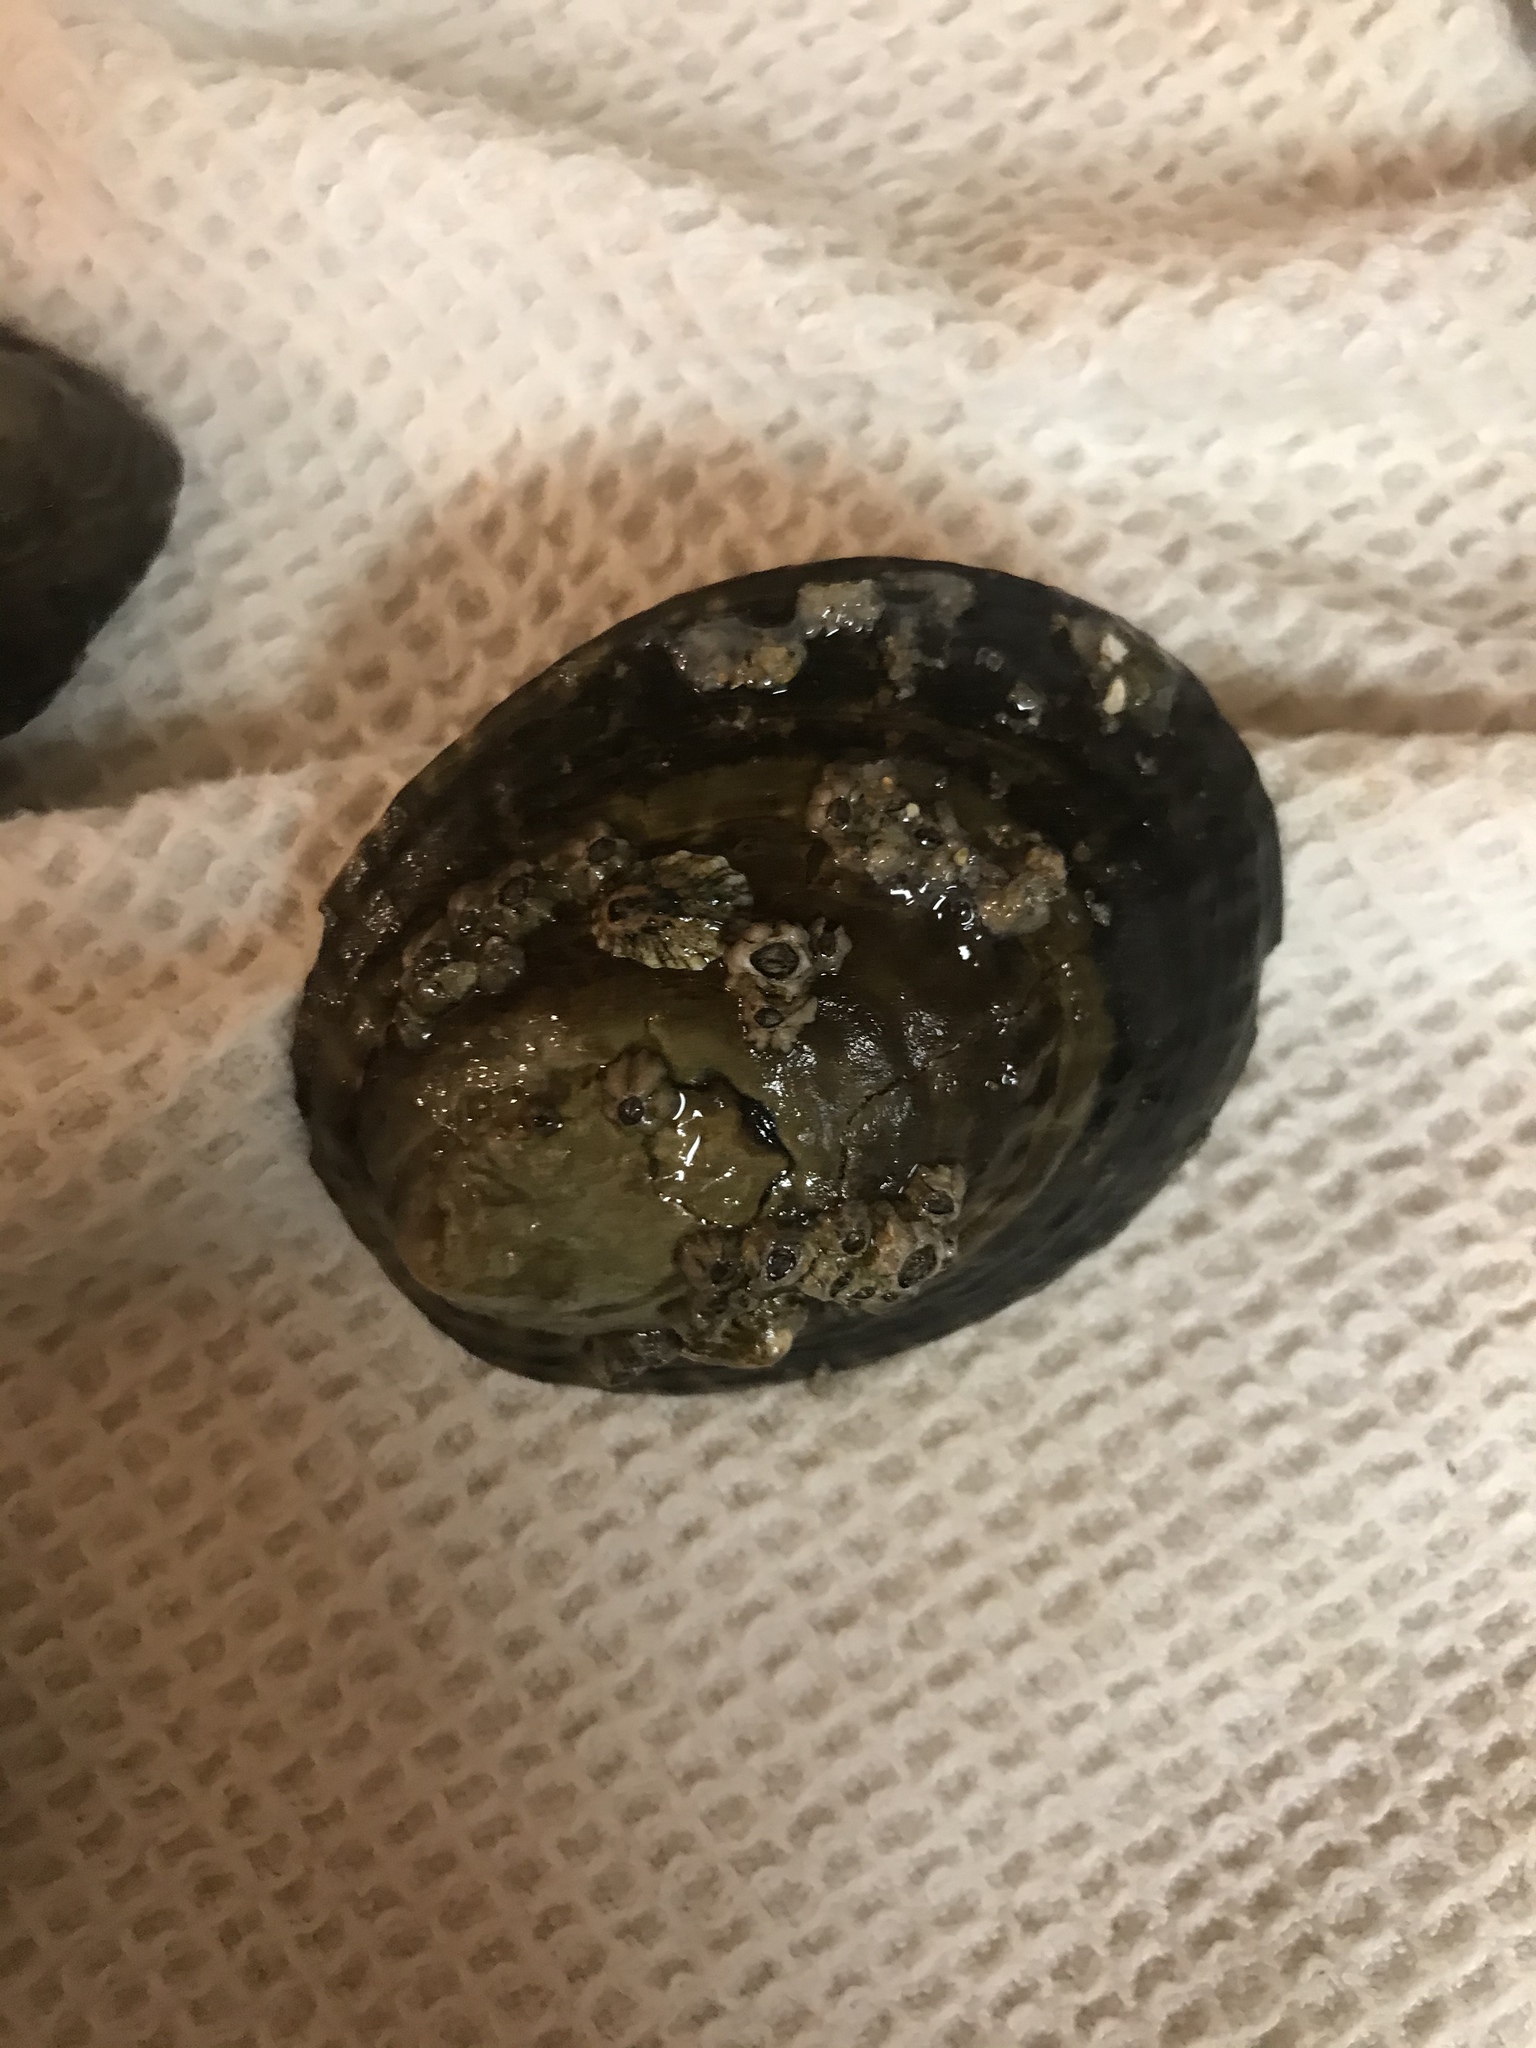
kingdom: Animalia
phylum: Mollusca
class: Gastropoda
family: Lottiidae
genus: Lottia
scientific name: Lottia gigantea
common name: Owl limpet
